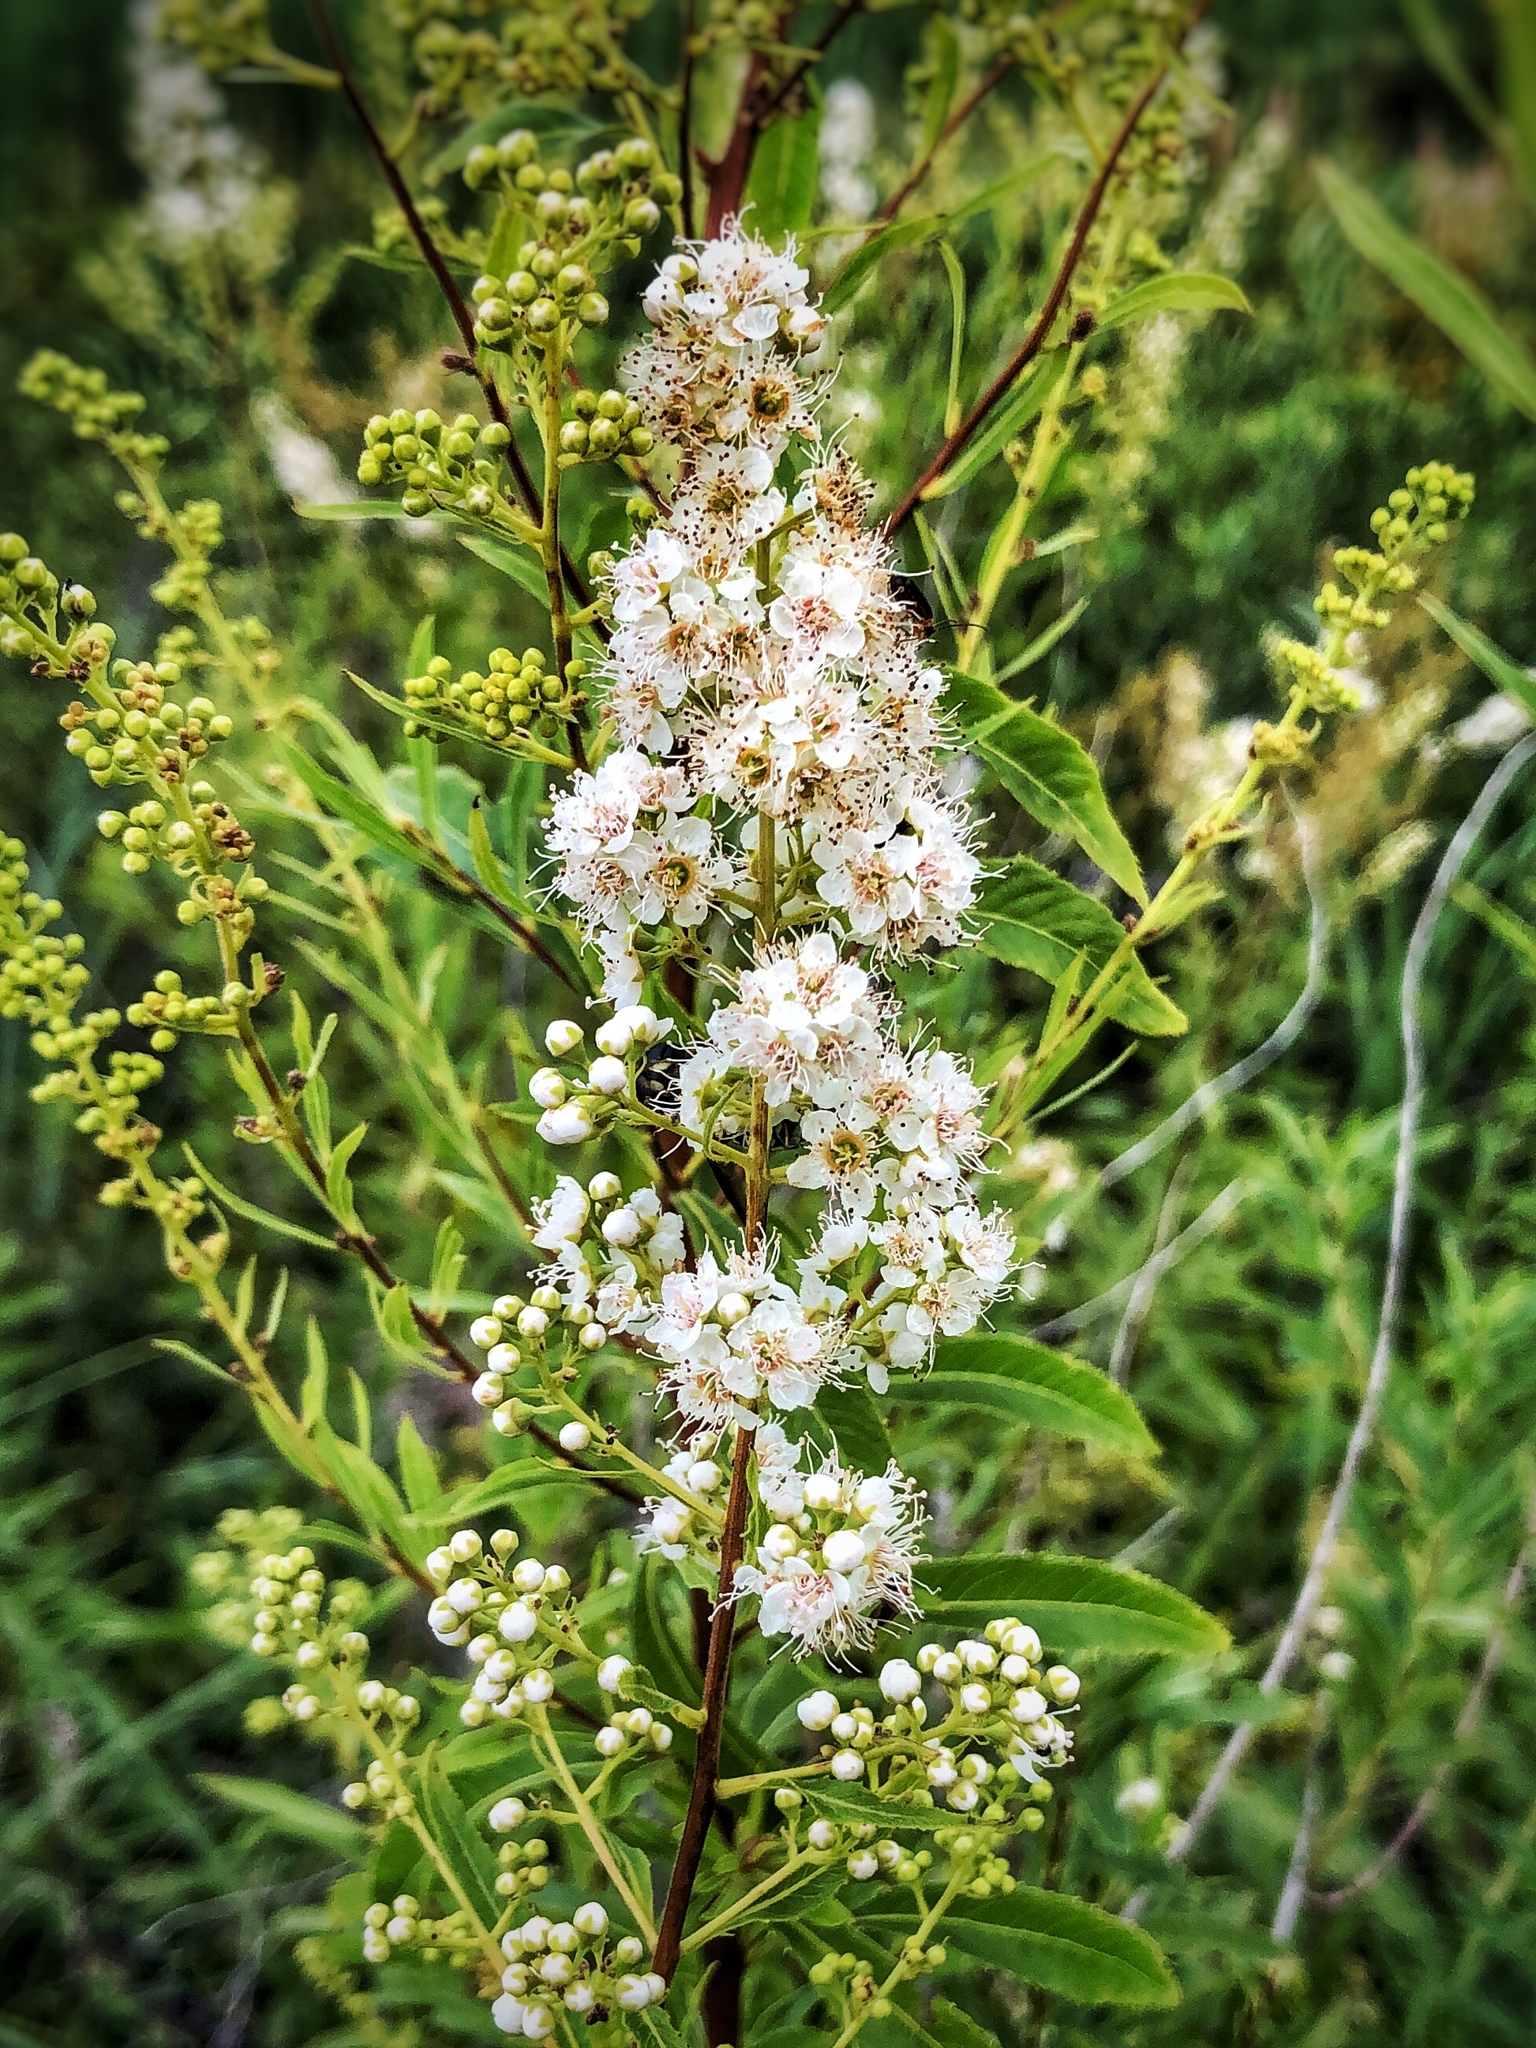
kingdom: Plantae
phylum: Tracheophyta
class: Magnoliopsida
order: Rosales
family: Rosaceae
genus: Spiraea
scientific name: Spiraea alba
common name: Pale bridewort
